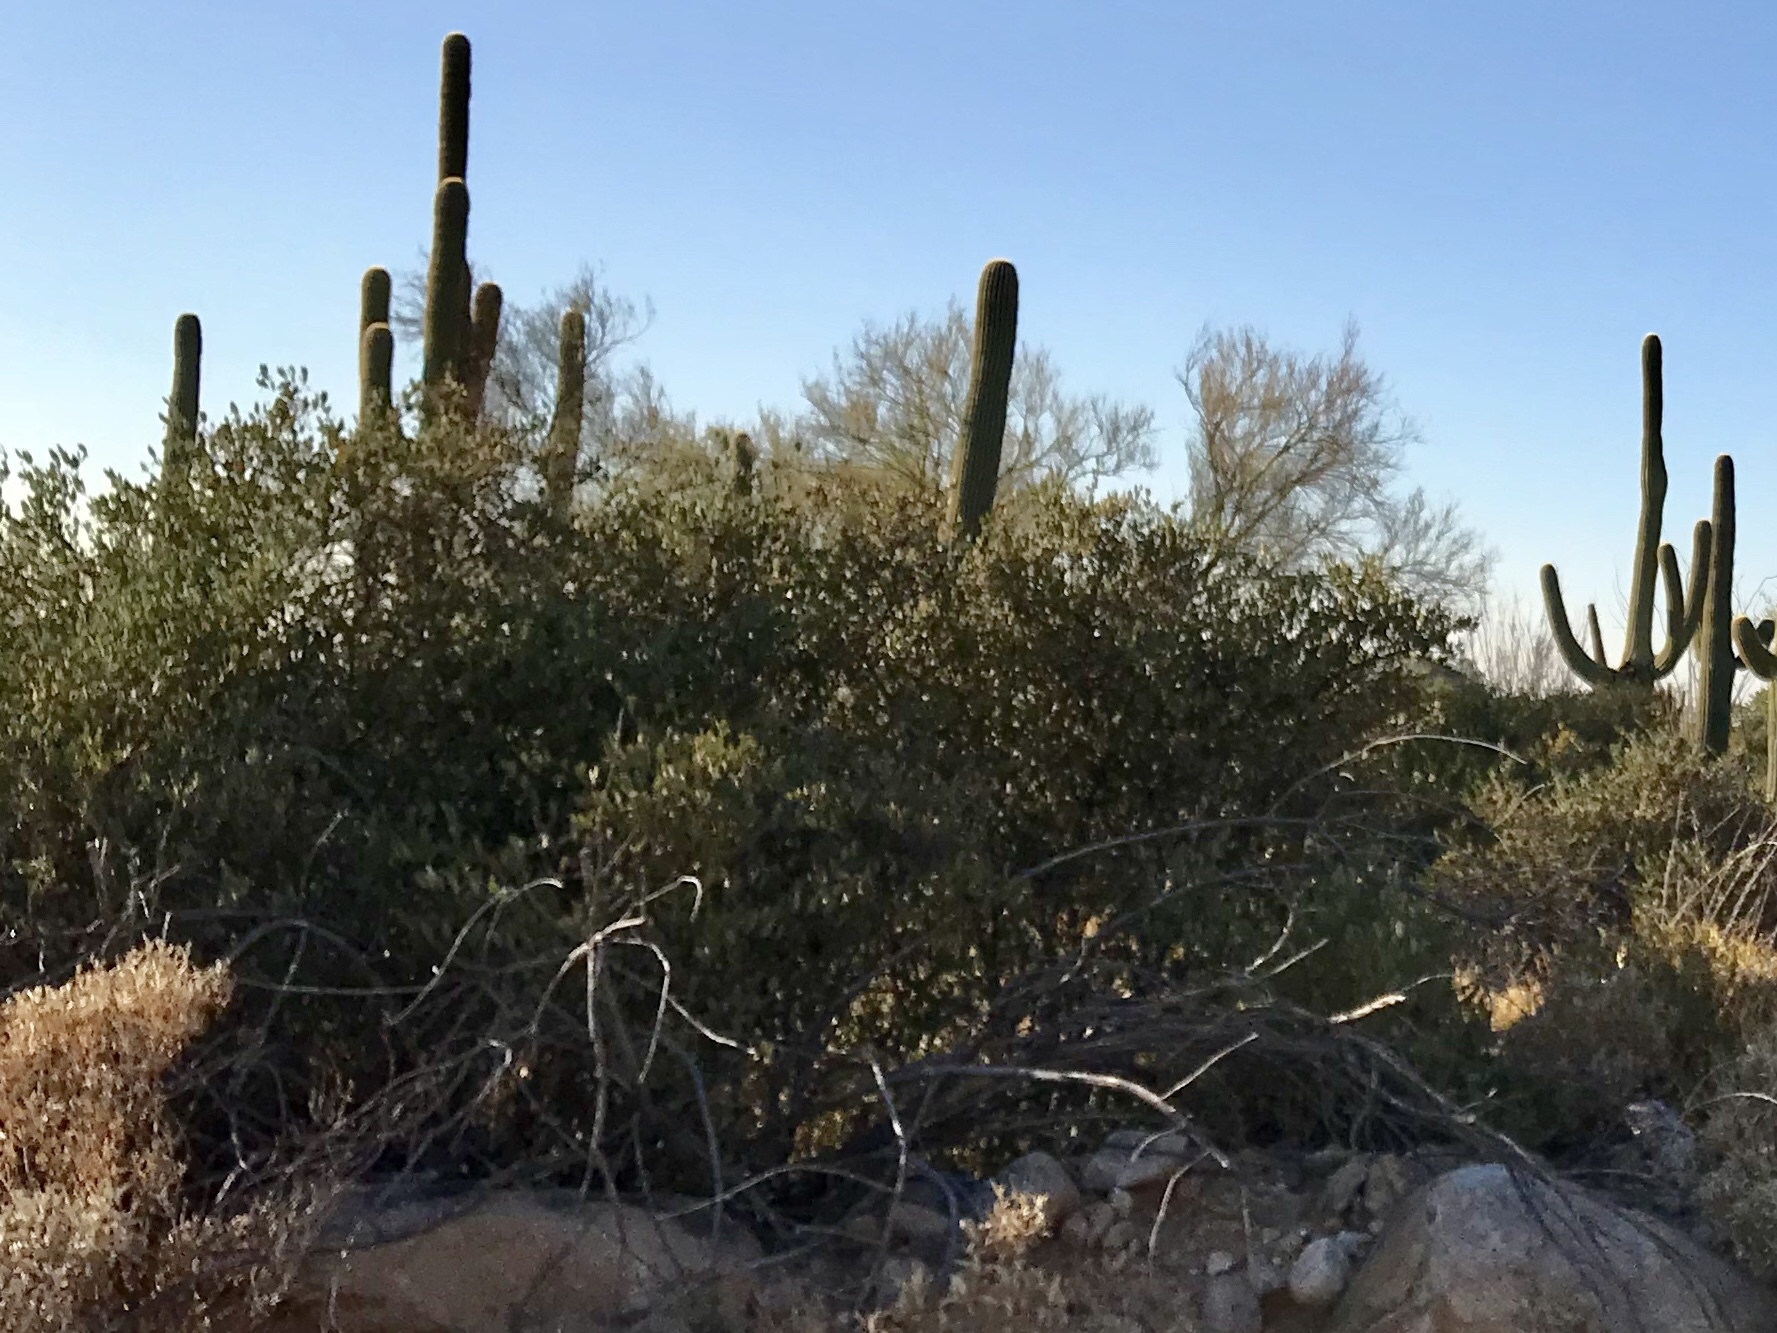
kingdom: Plantae
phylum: Tracheophyta
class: Magnoliopsida
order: Caryophyllales
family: Simmondsiaceae
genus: Simmondsia
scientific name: Simmondsia chinensis
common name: Jojoba
